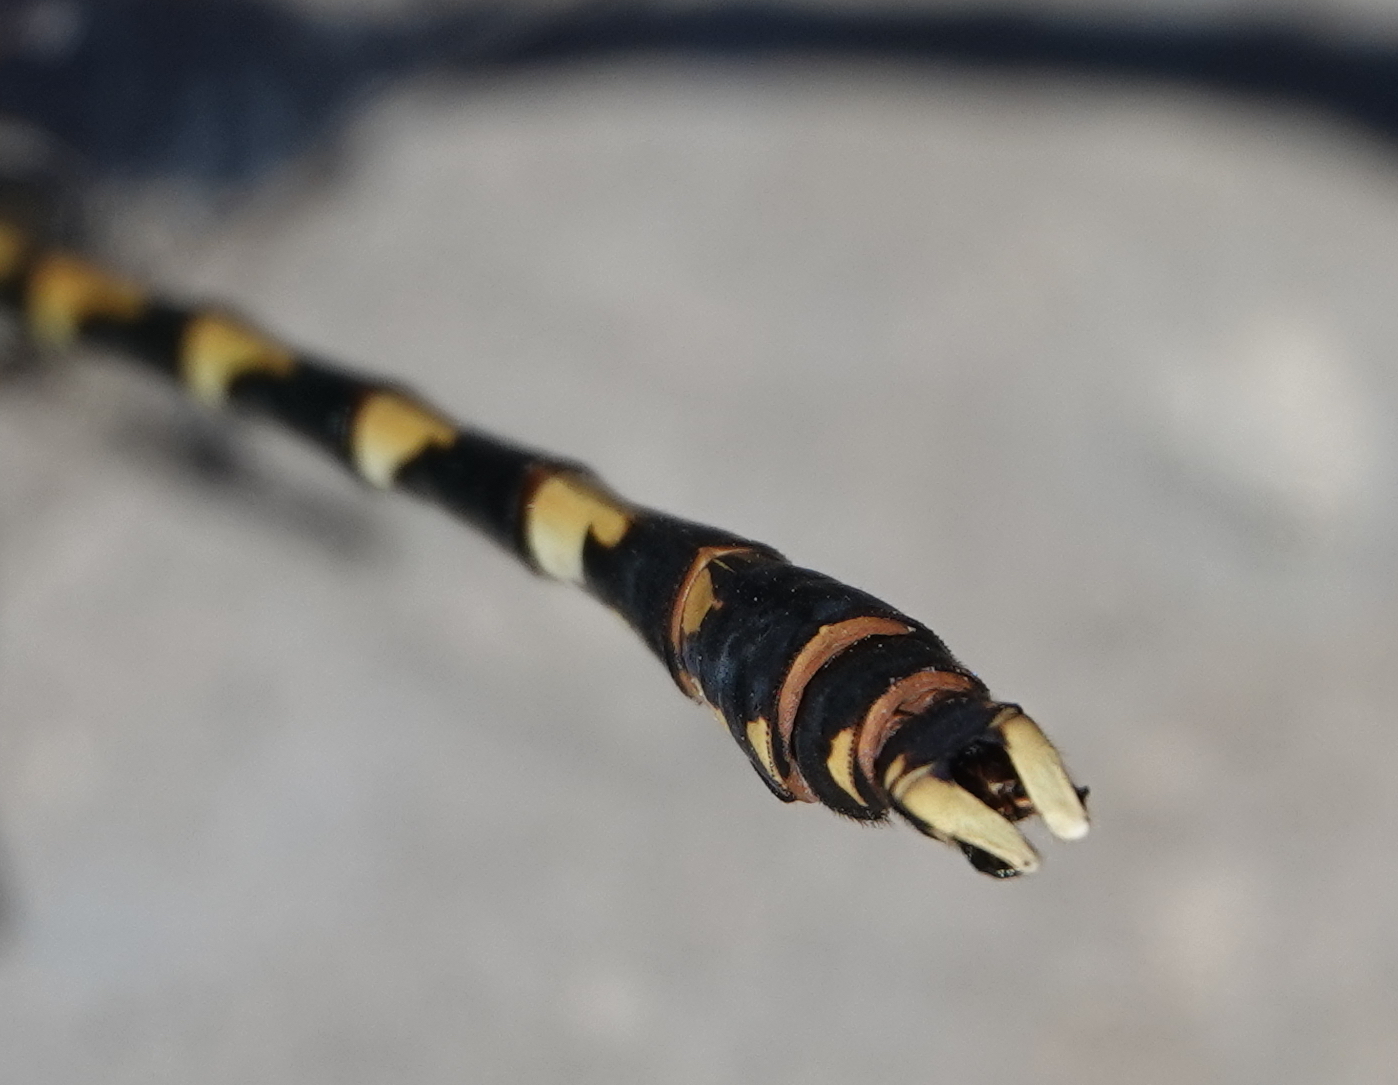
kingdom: Animalia
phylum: Arthropoda
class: Insecta
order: Odonata
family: Gomphidae
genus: Progomphus
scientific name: Progomphus borealis
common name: Gray sanddragon
